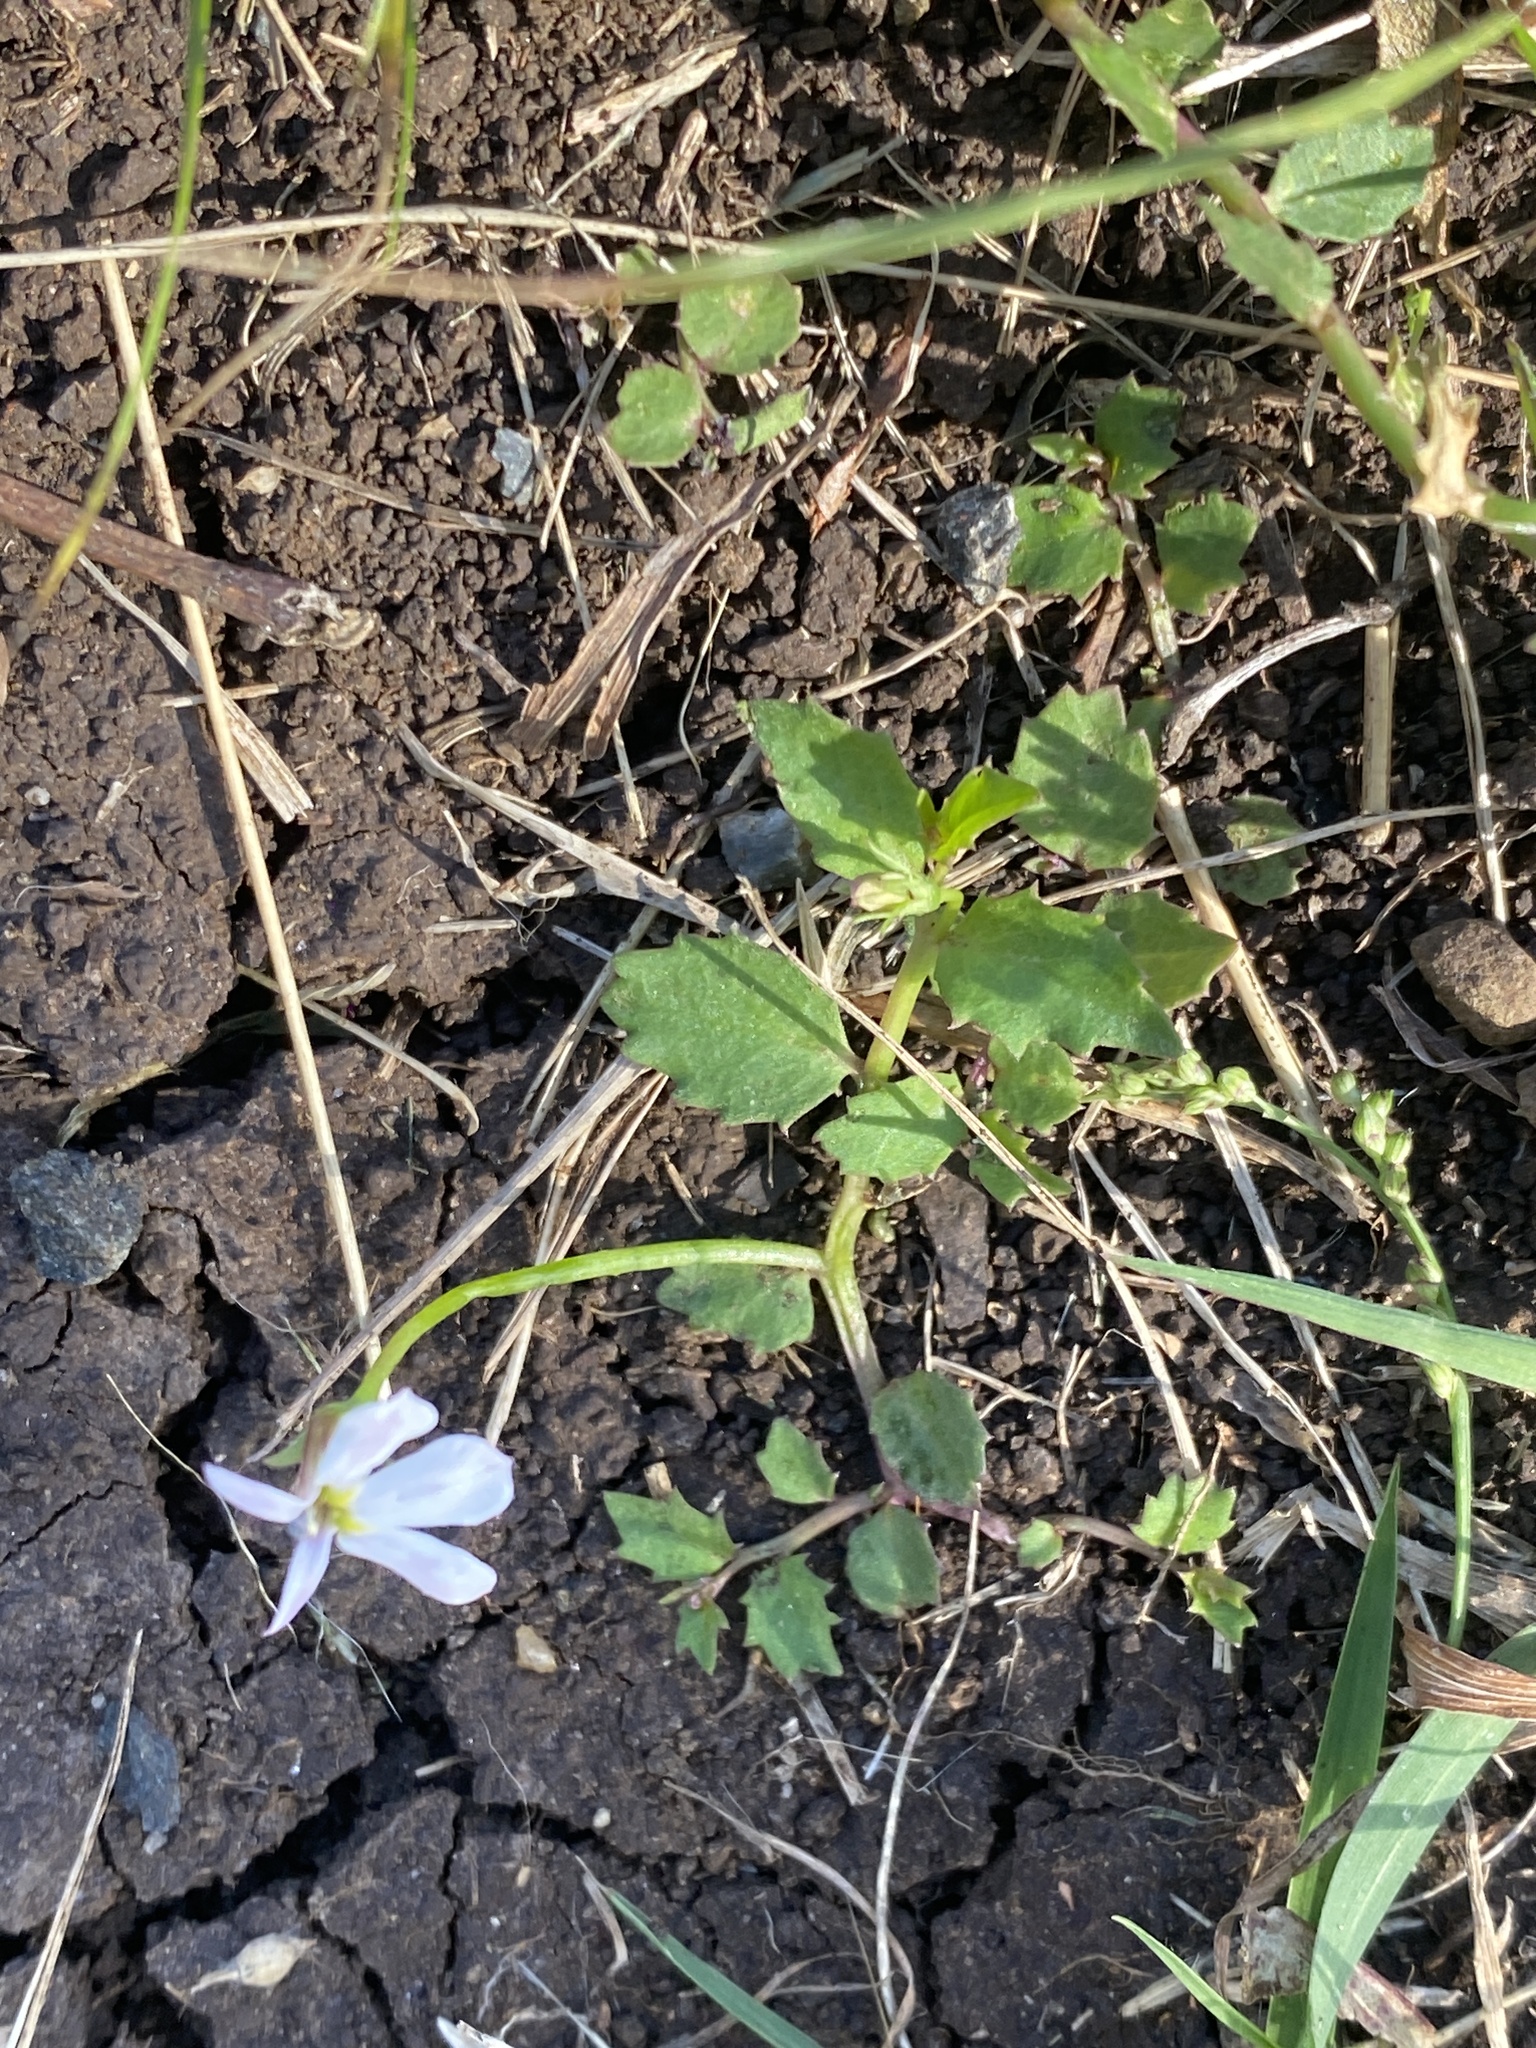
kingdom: Plantae
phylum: Tracheophyta
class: Magnoliopsida
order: Asterales
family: Campanulaceae
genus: Lobelia
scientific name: Lobelia purpurascens
